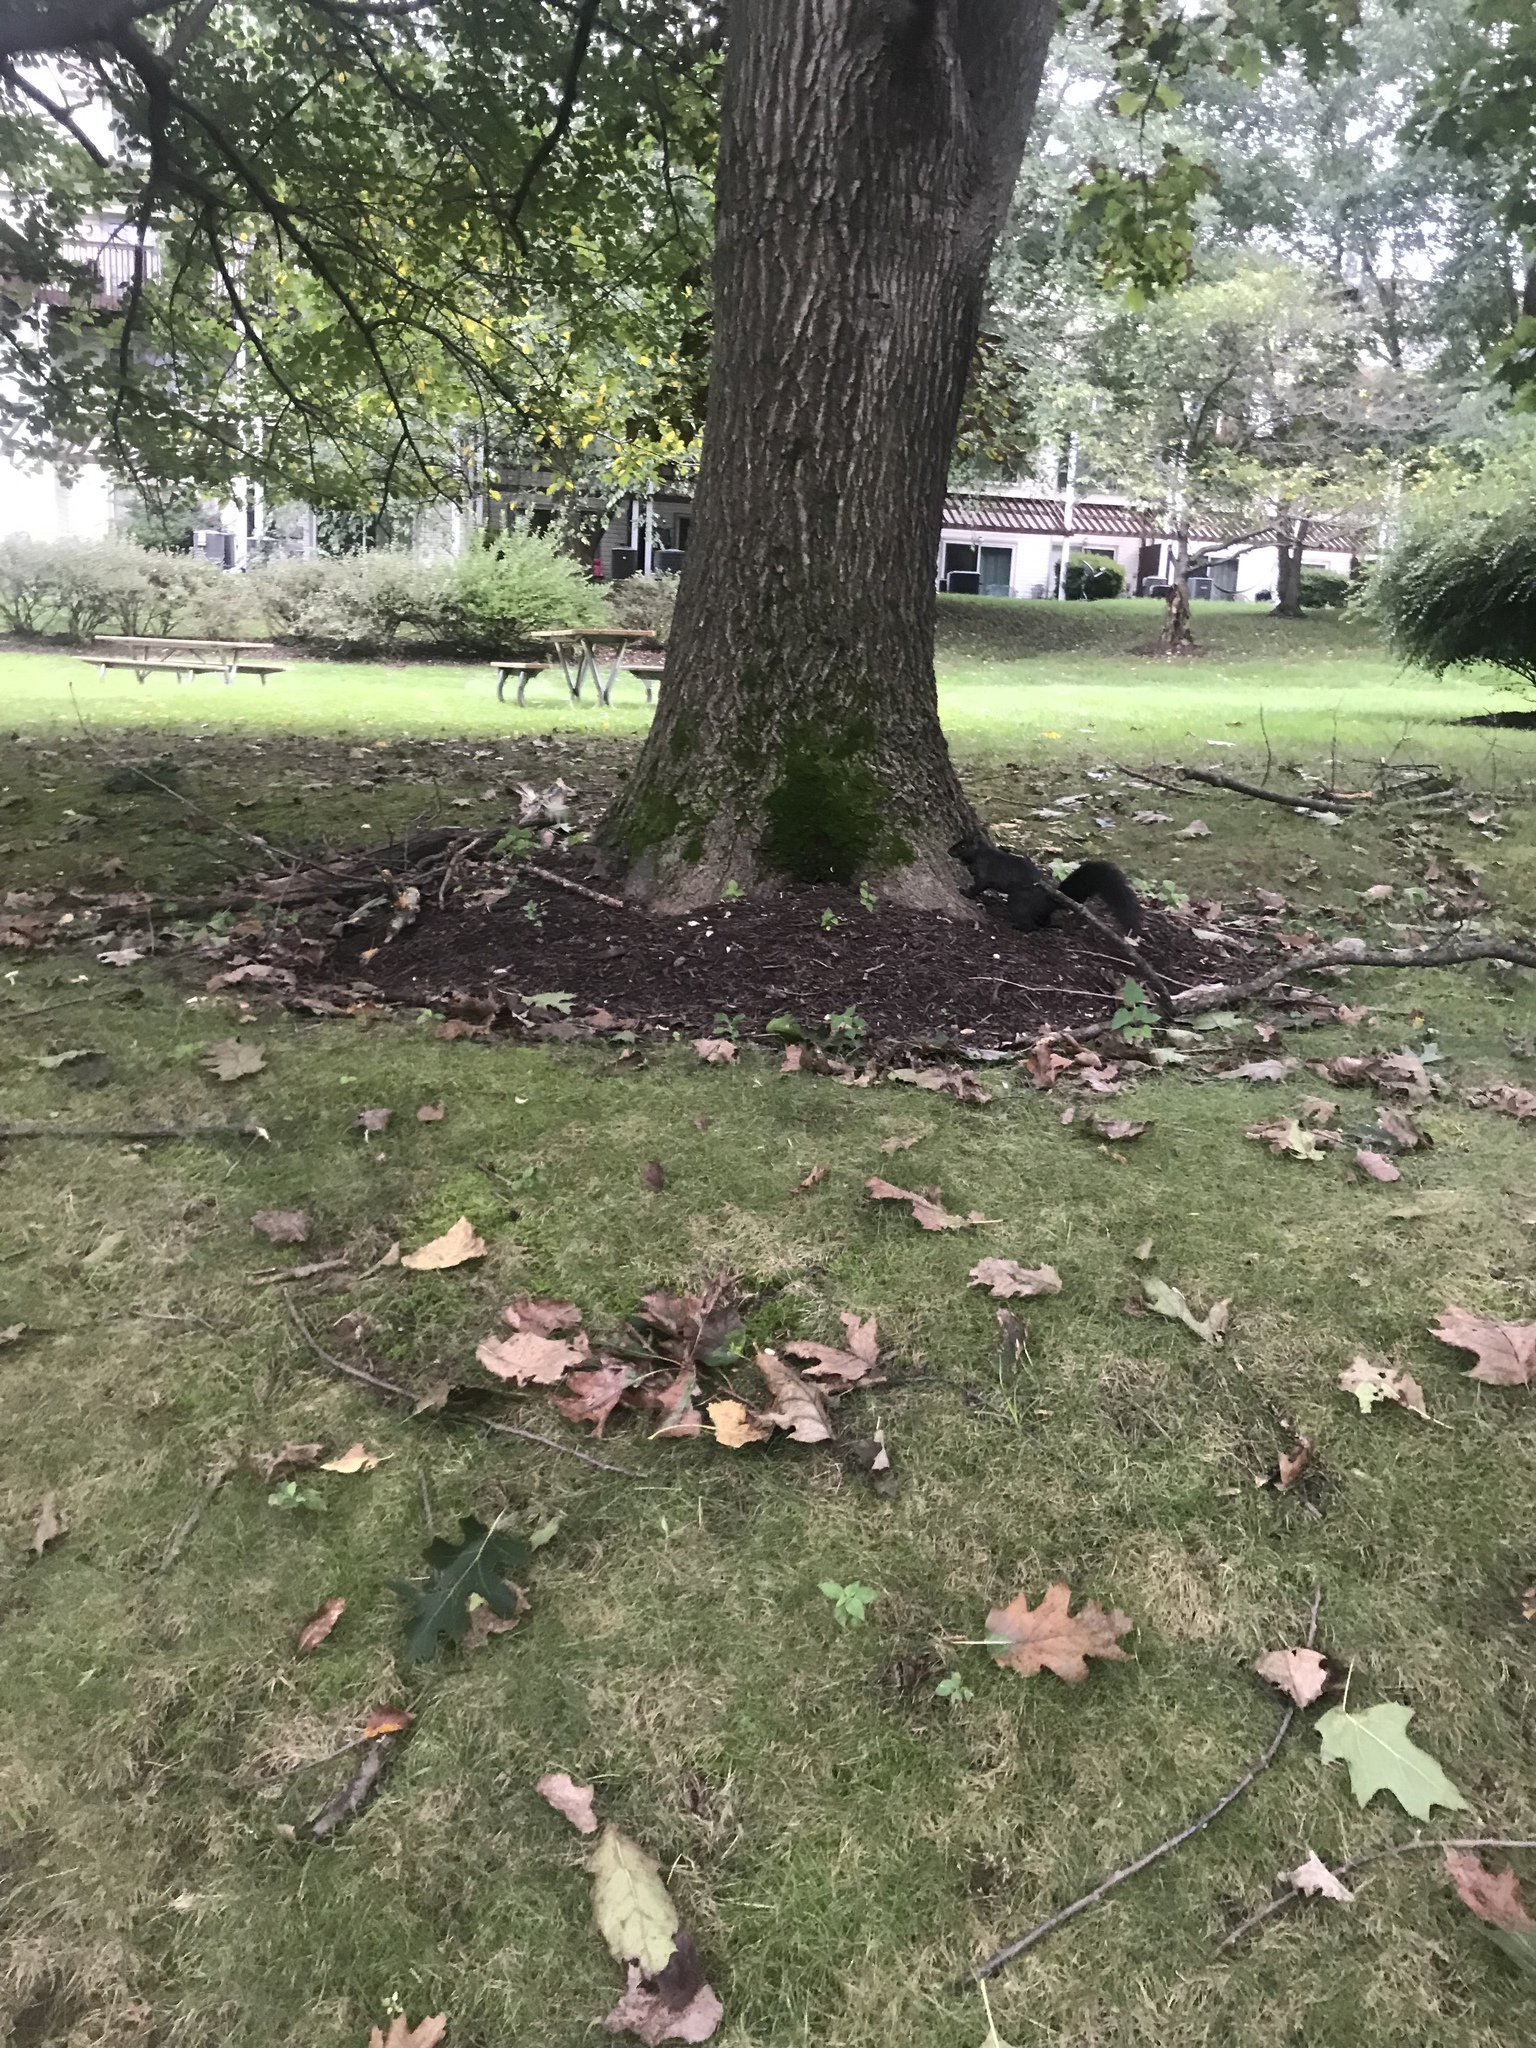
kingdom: Animalia
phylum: Chordata
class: Mammalia
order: Rodentia
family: Sciuridae
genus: Sciurus
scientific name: Sciurus carolinensis
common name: Eastern gray squirrel
